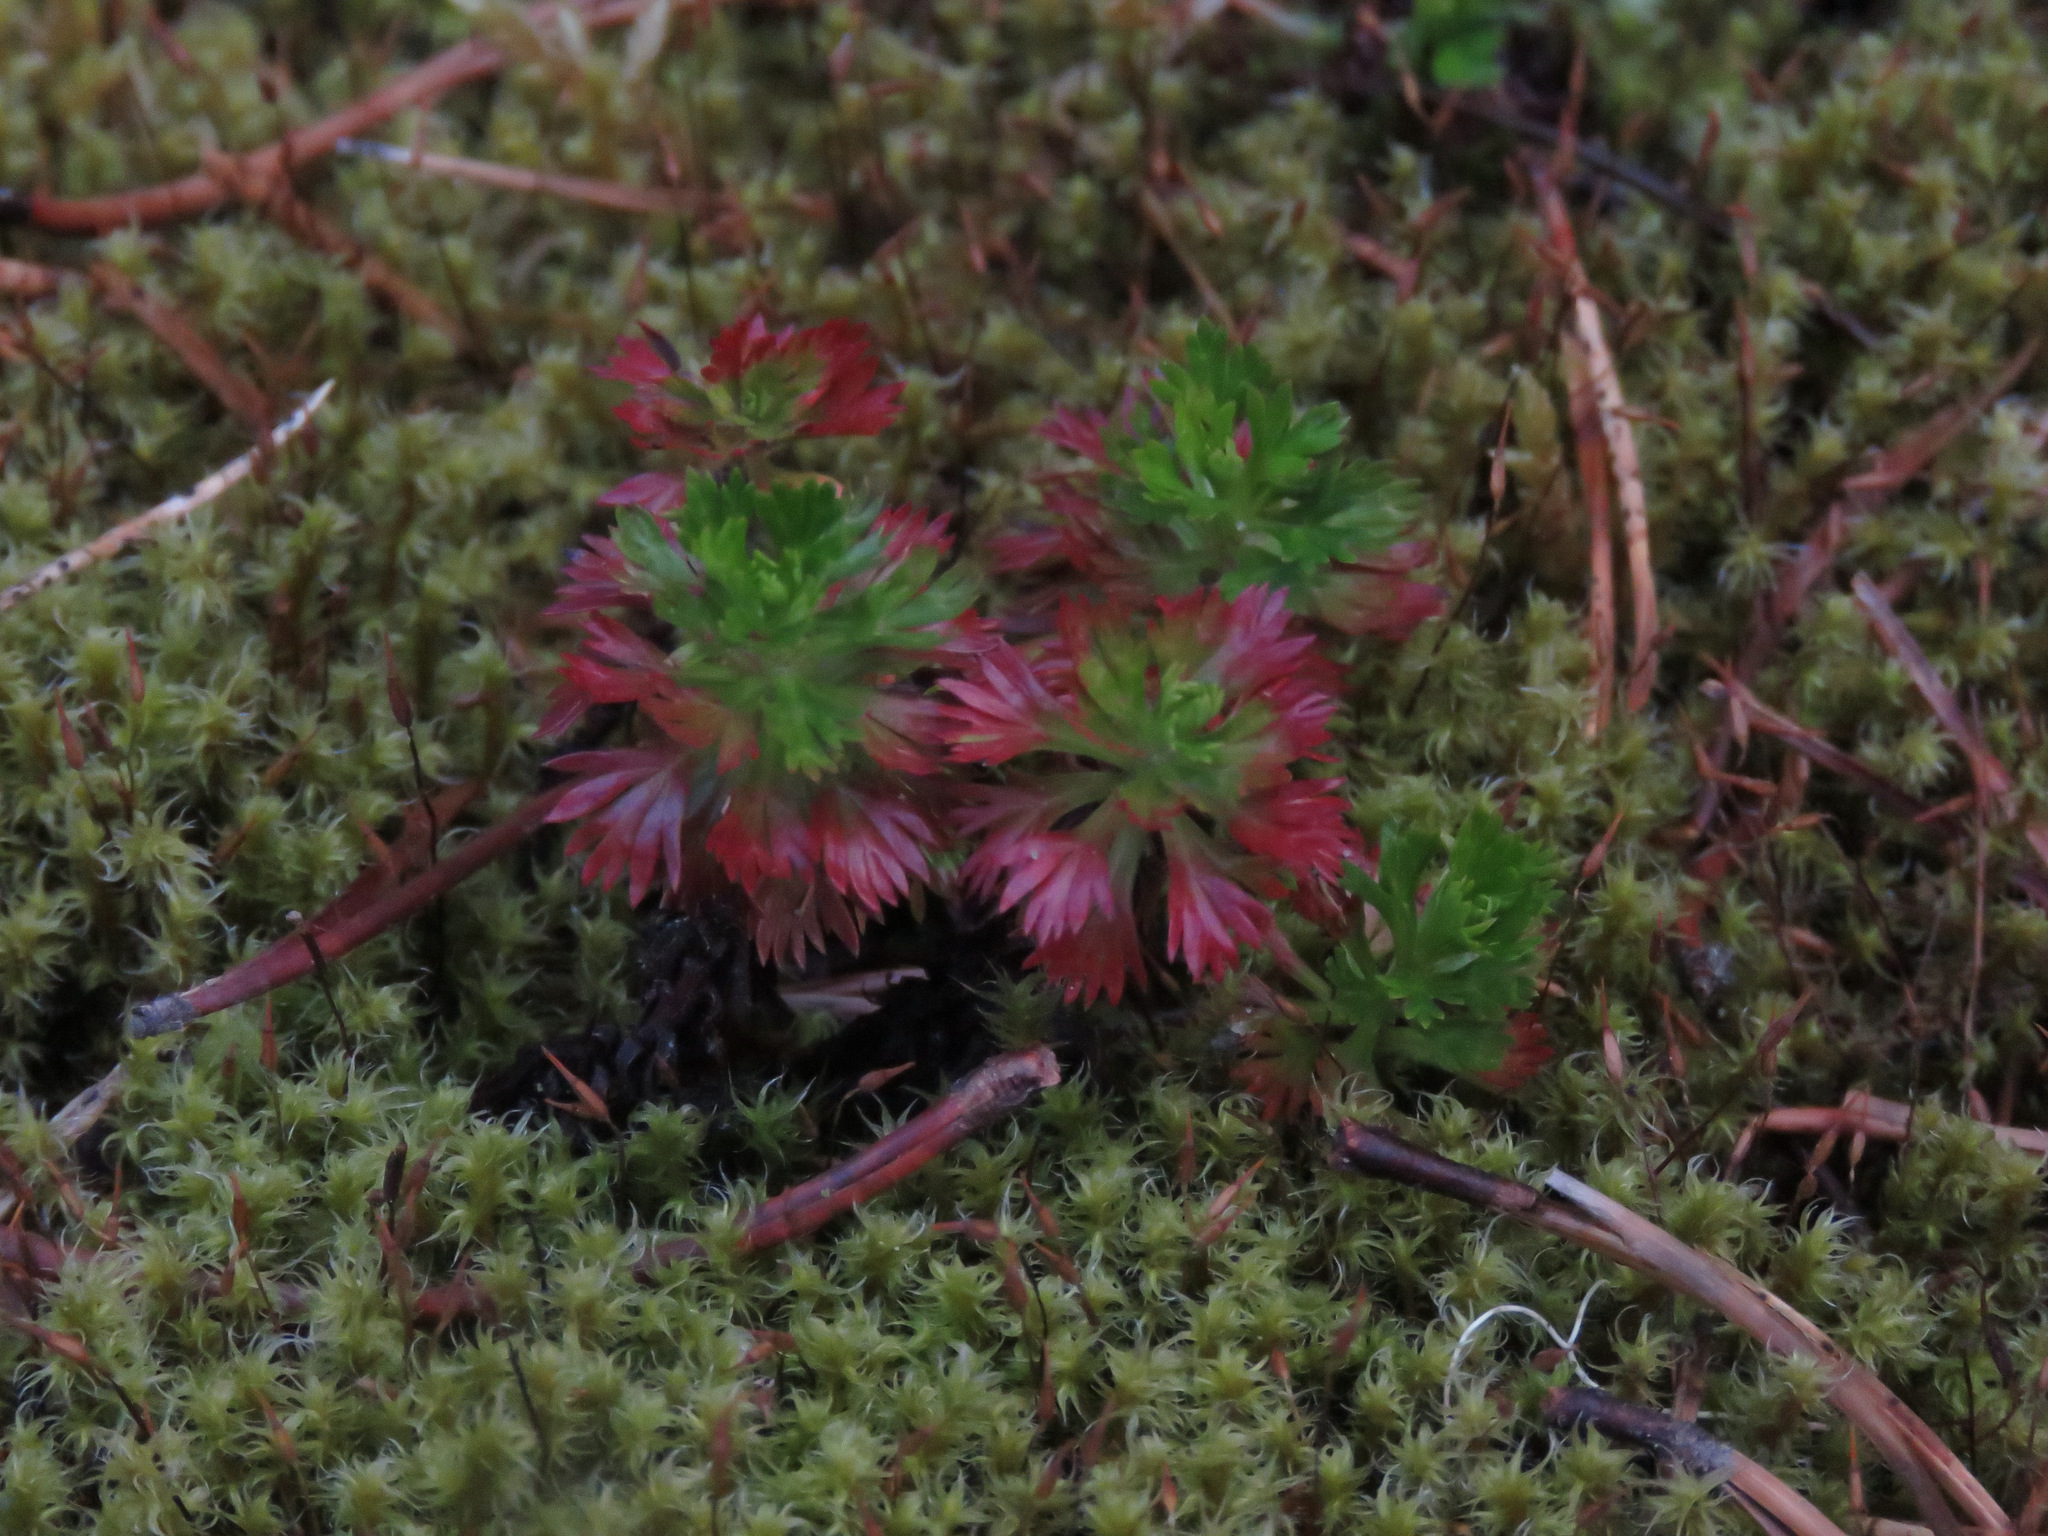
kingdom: Plantae
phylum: Tracheophyta
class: Magnoliopsida
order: Rosales
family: Rosaceae
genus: Luetkea
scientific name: Luetkea pectinata
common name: Partridgefoot
